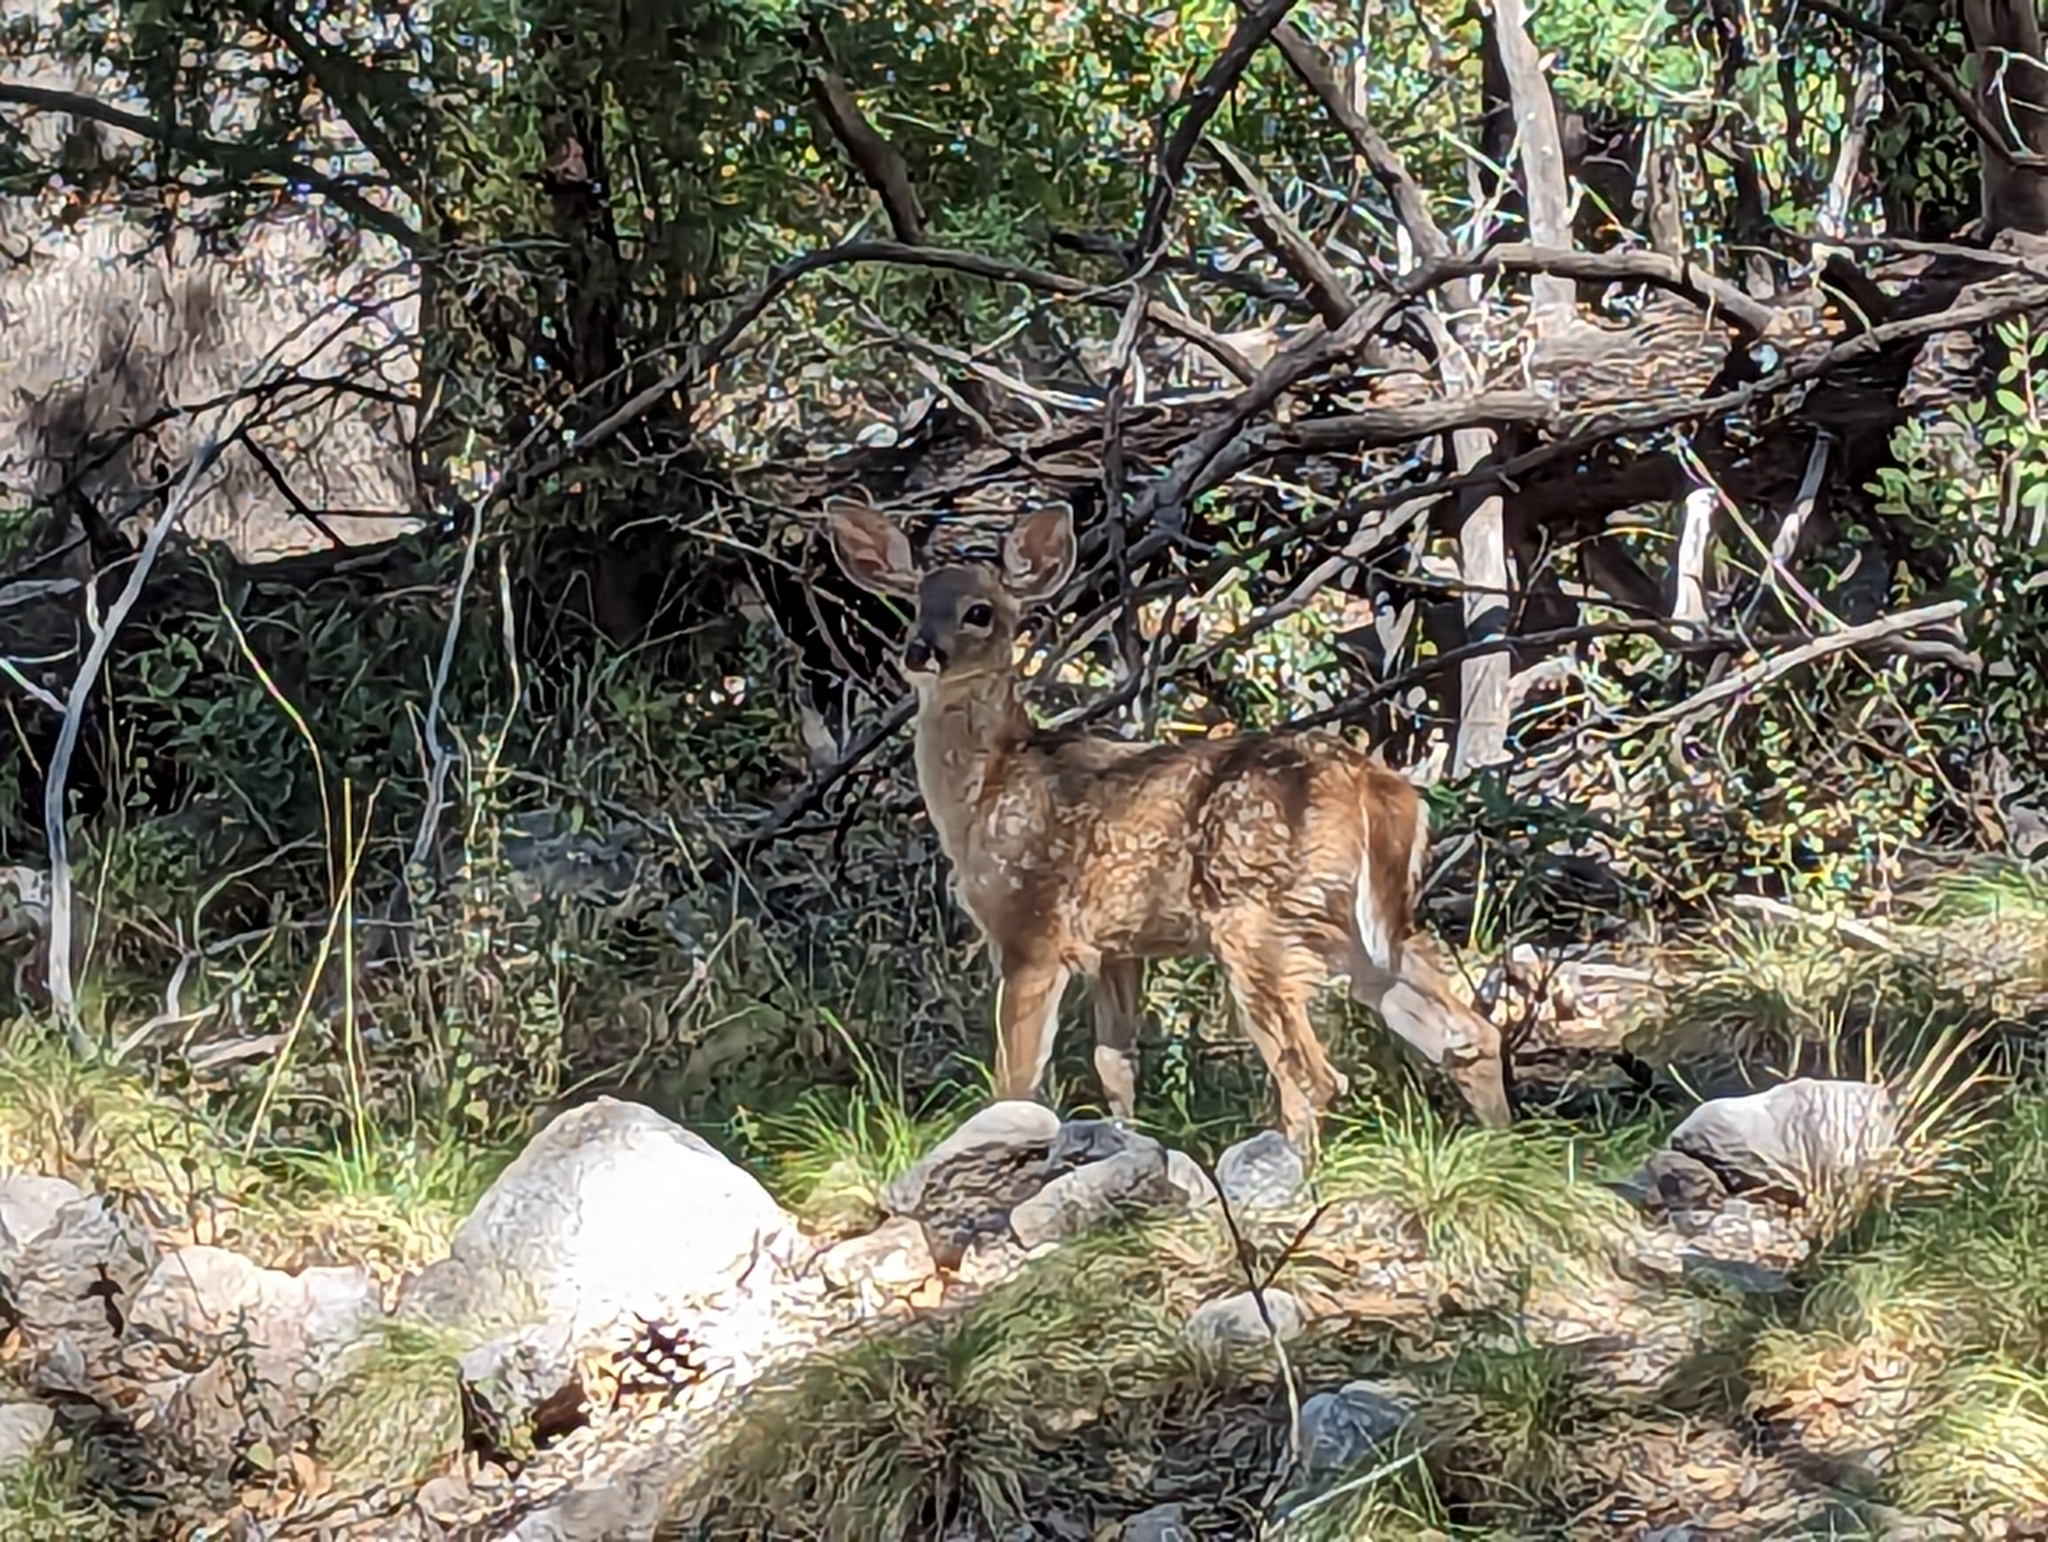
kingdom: Animalia
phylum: Chordata
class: Mammalia
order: Artiodactyla
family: Cervidae
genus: Odocoileus
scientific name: Odocoileus virginianus
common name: White-tailed deer
